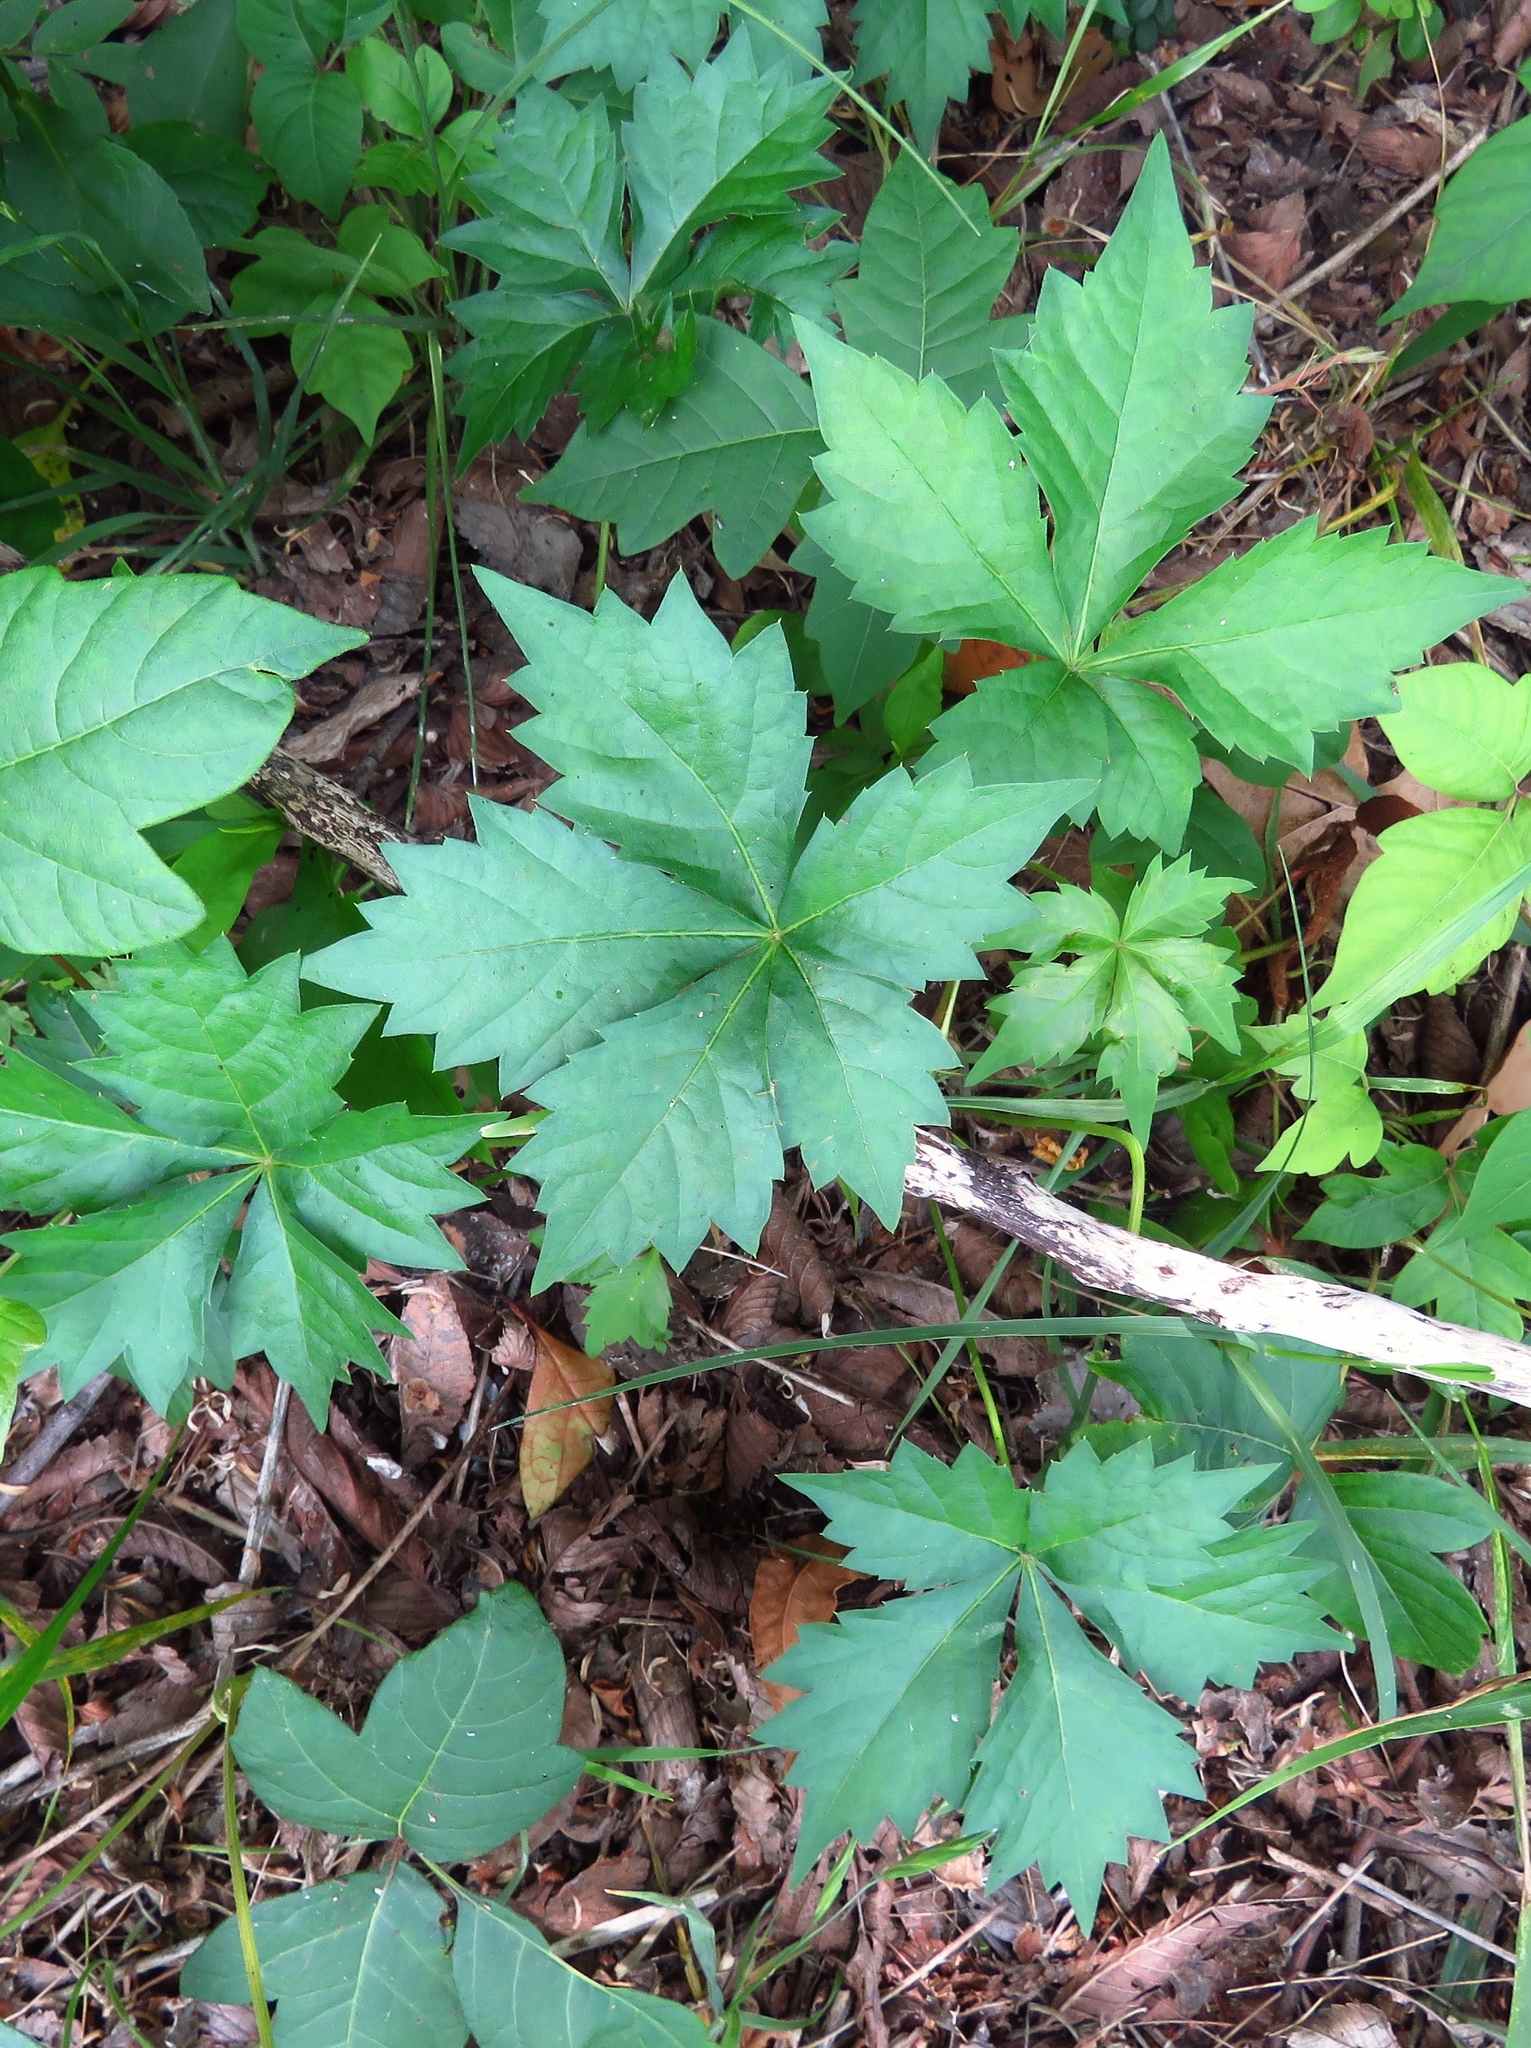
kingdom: Plantae
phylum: Tracheophyta
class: Magnoliopsida
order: Vitales
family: Vitaceae
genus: Parthenocissus
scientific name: Parthenocissus quinquefolia
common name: Virginia-creeper
